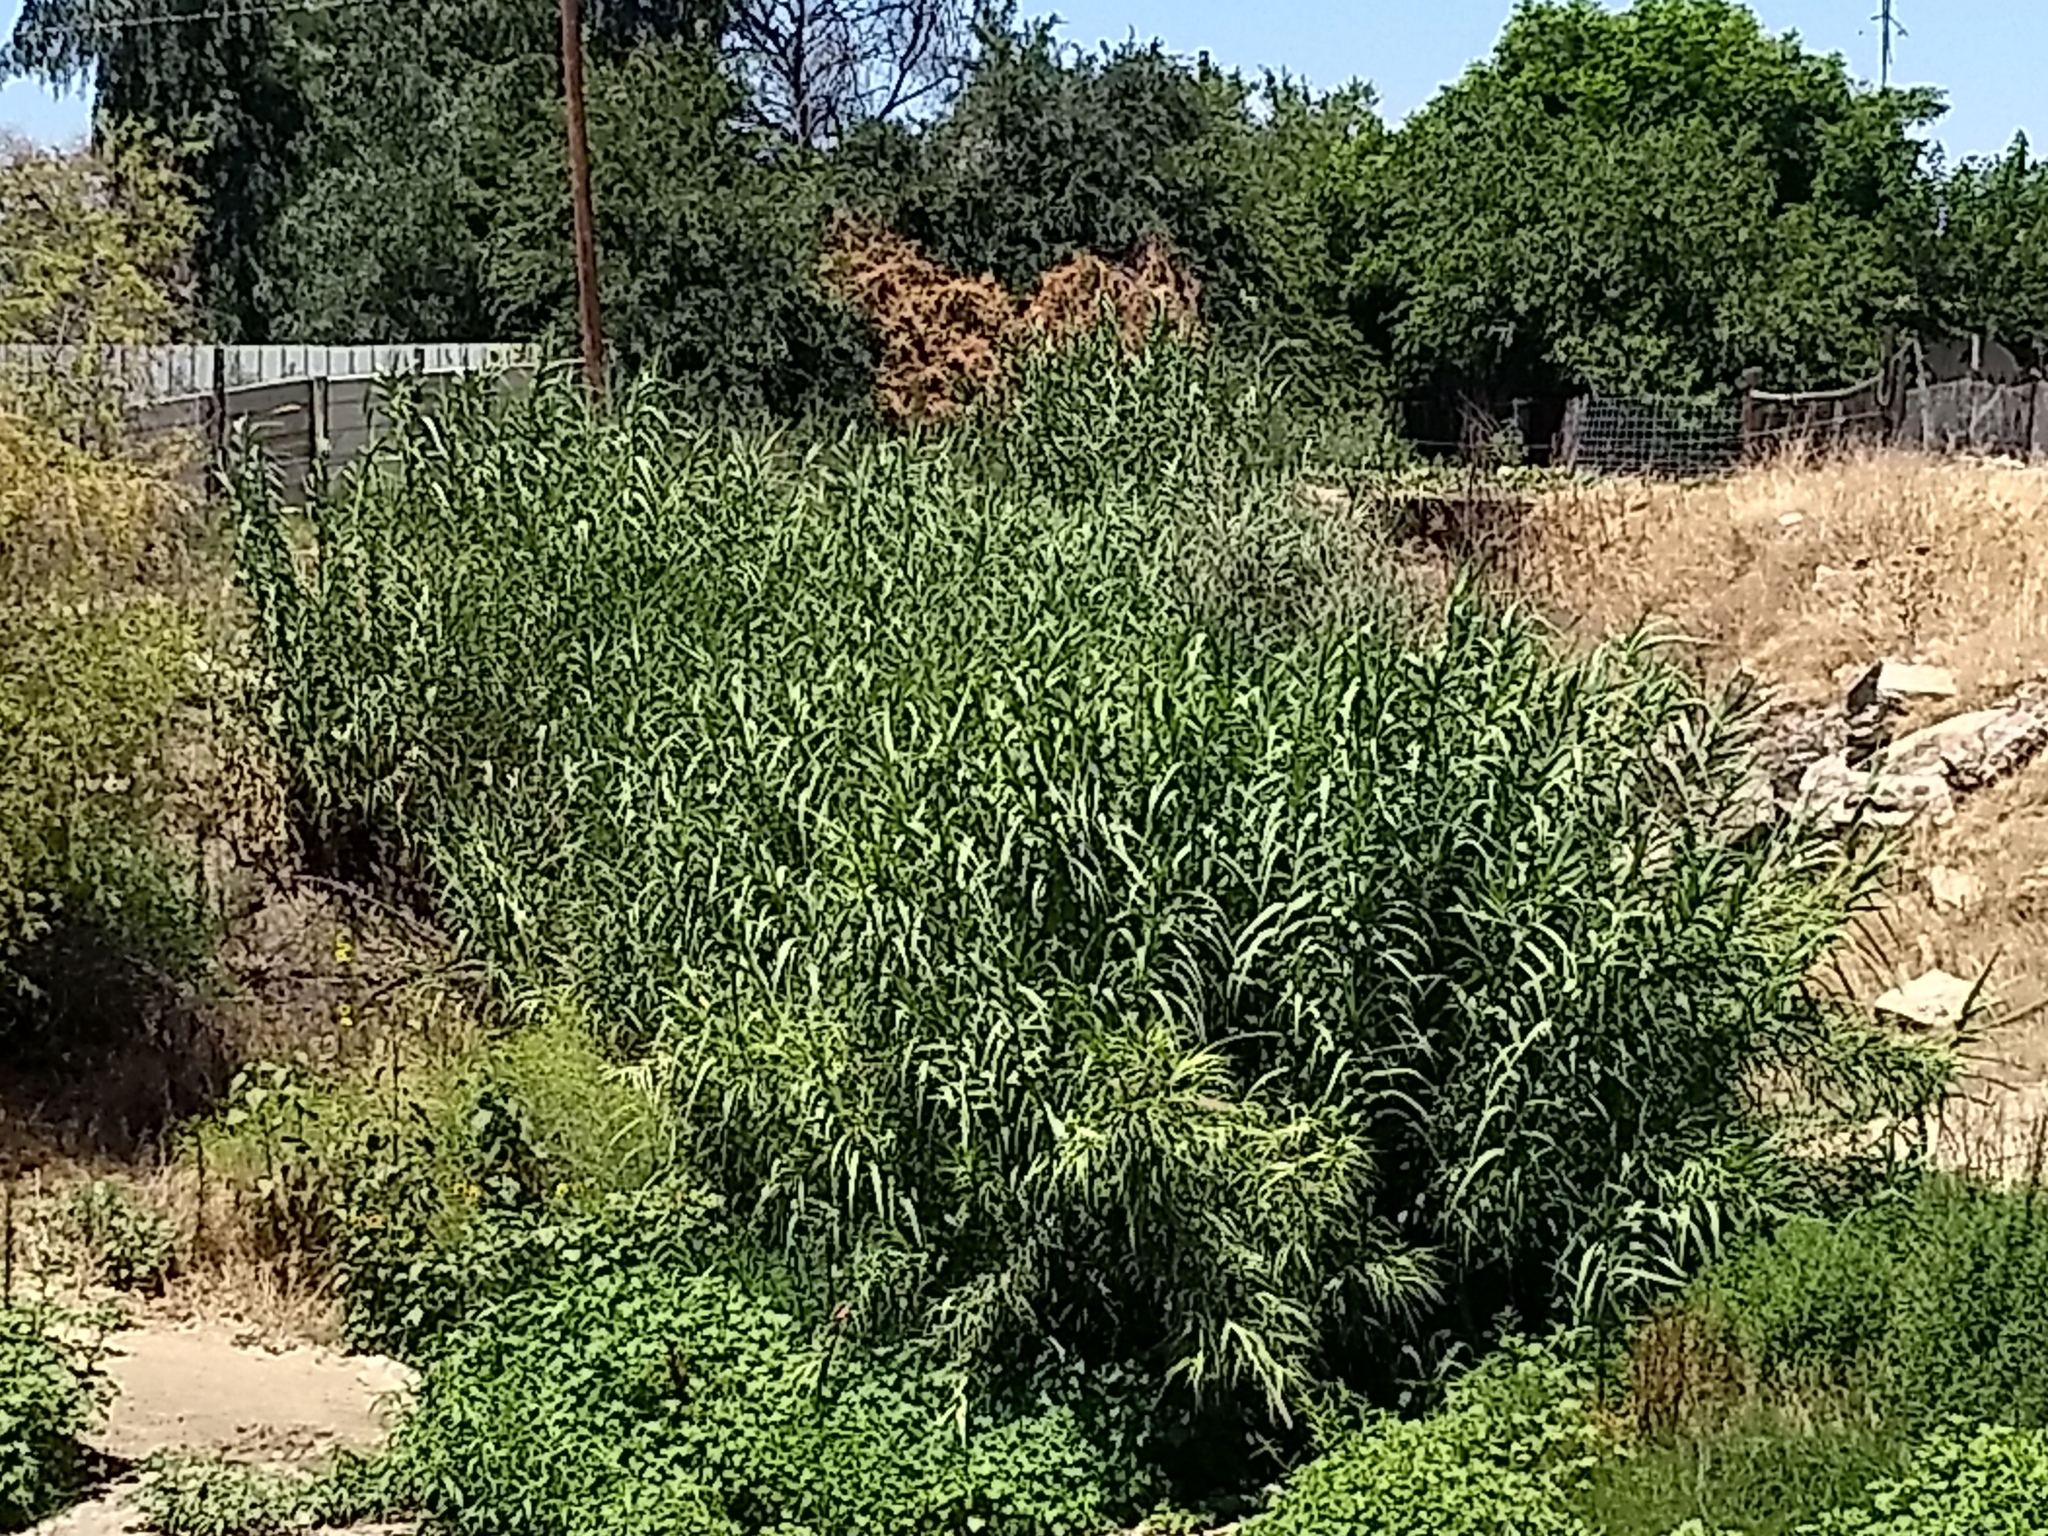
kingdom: Plantae
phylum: Tracheophyta
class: Liliopsida
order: Poales
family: Poaceae
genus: Arundo
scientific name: Arundo donax
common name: Giant reed
